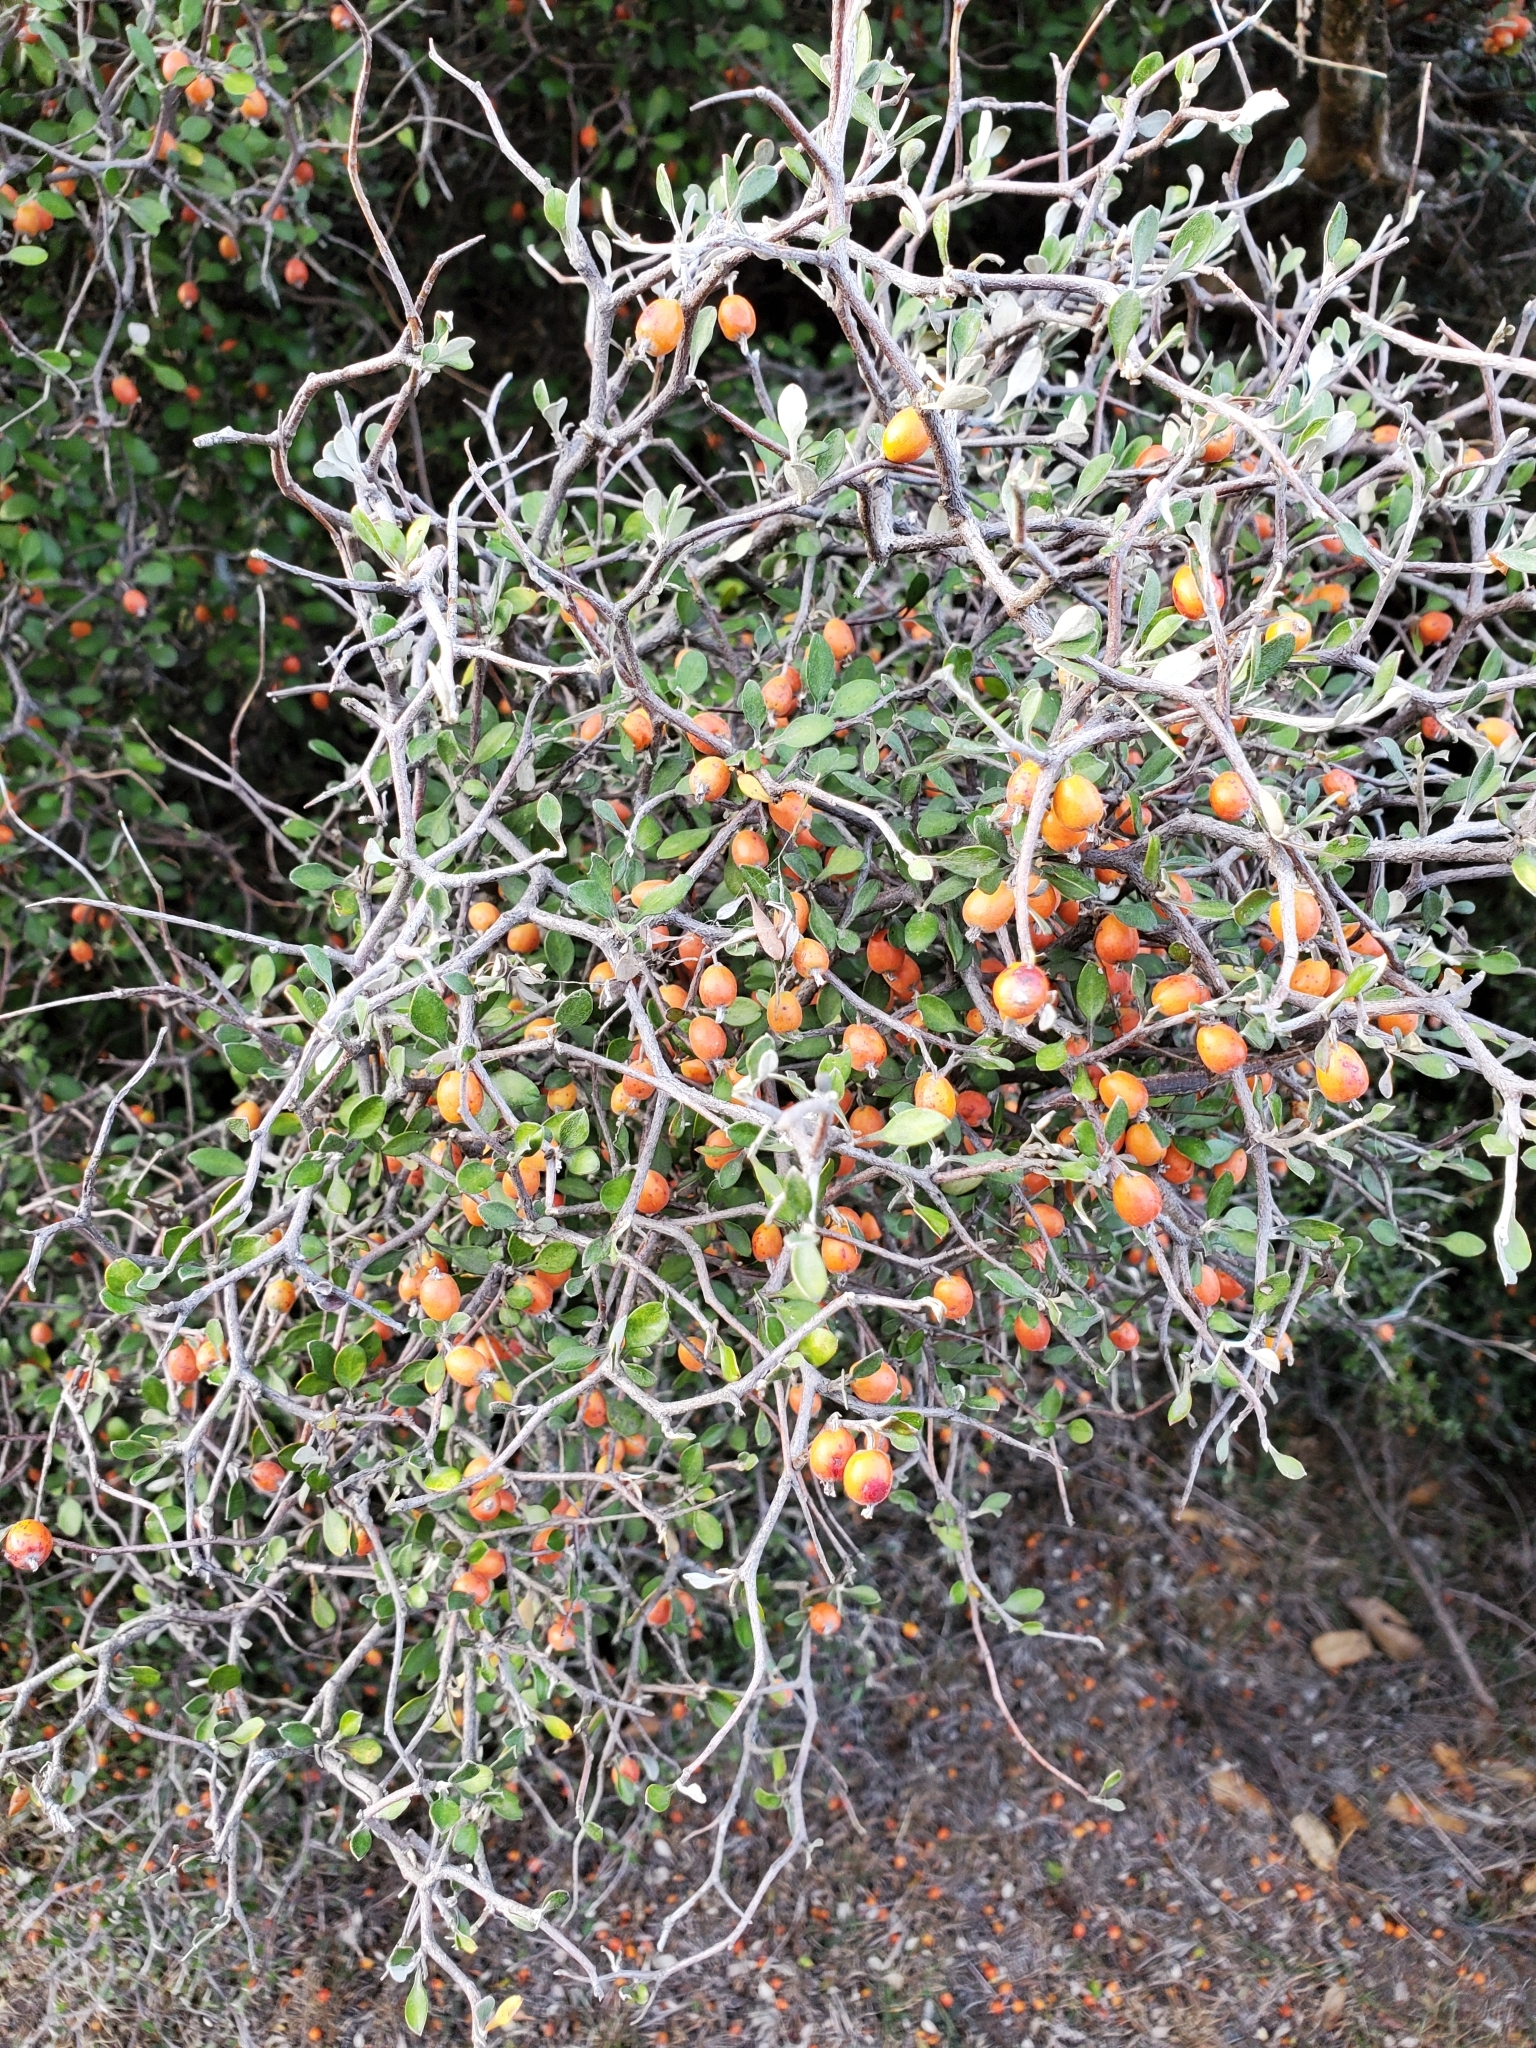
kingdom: Plantae
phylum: Tracheophyta
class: Magnoliopsida
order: Asterales
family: Argophyllaceae
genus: Corokia
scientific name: Corokia cotoneaster
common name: Wire nettingbush
